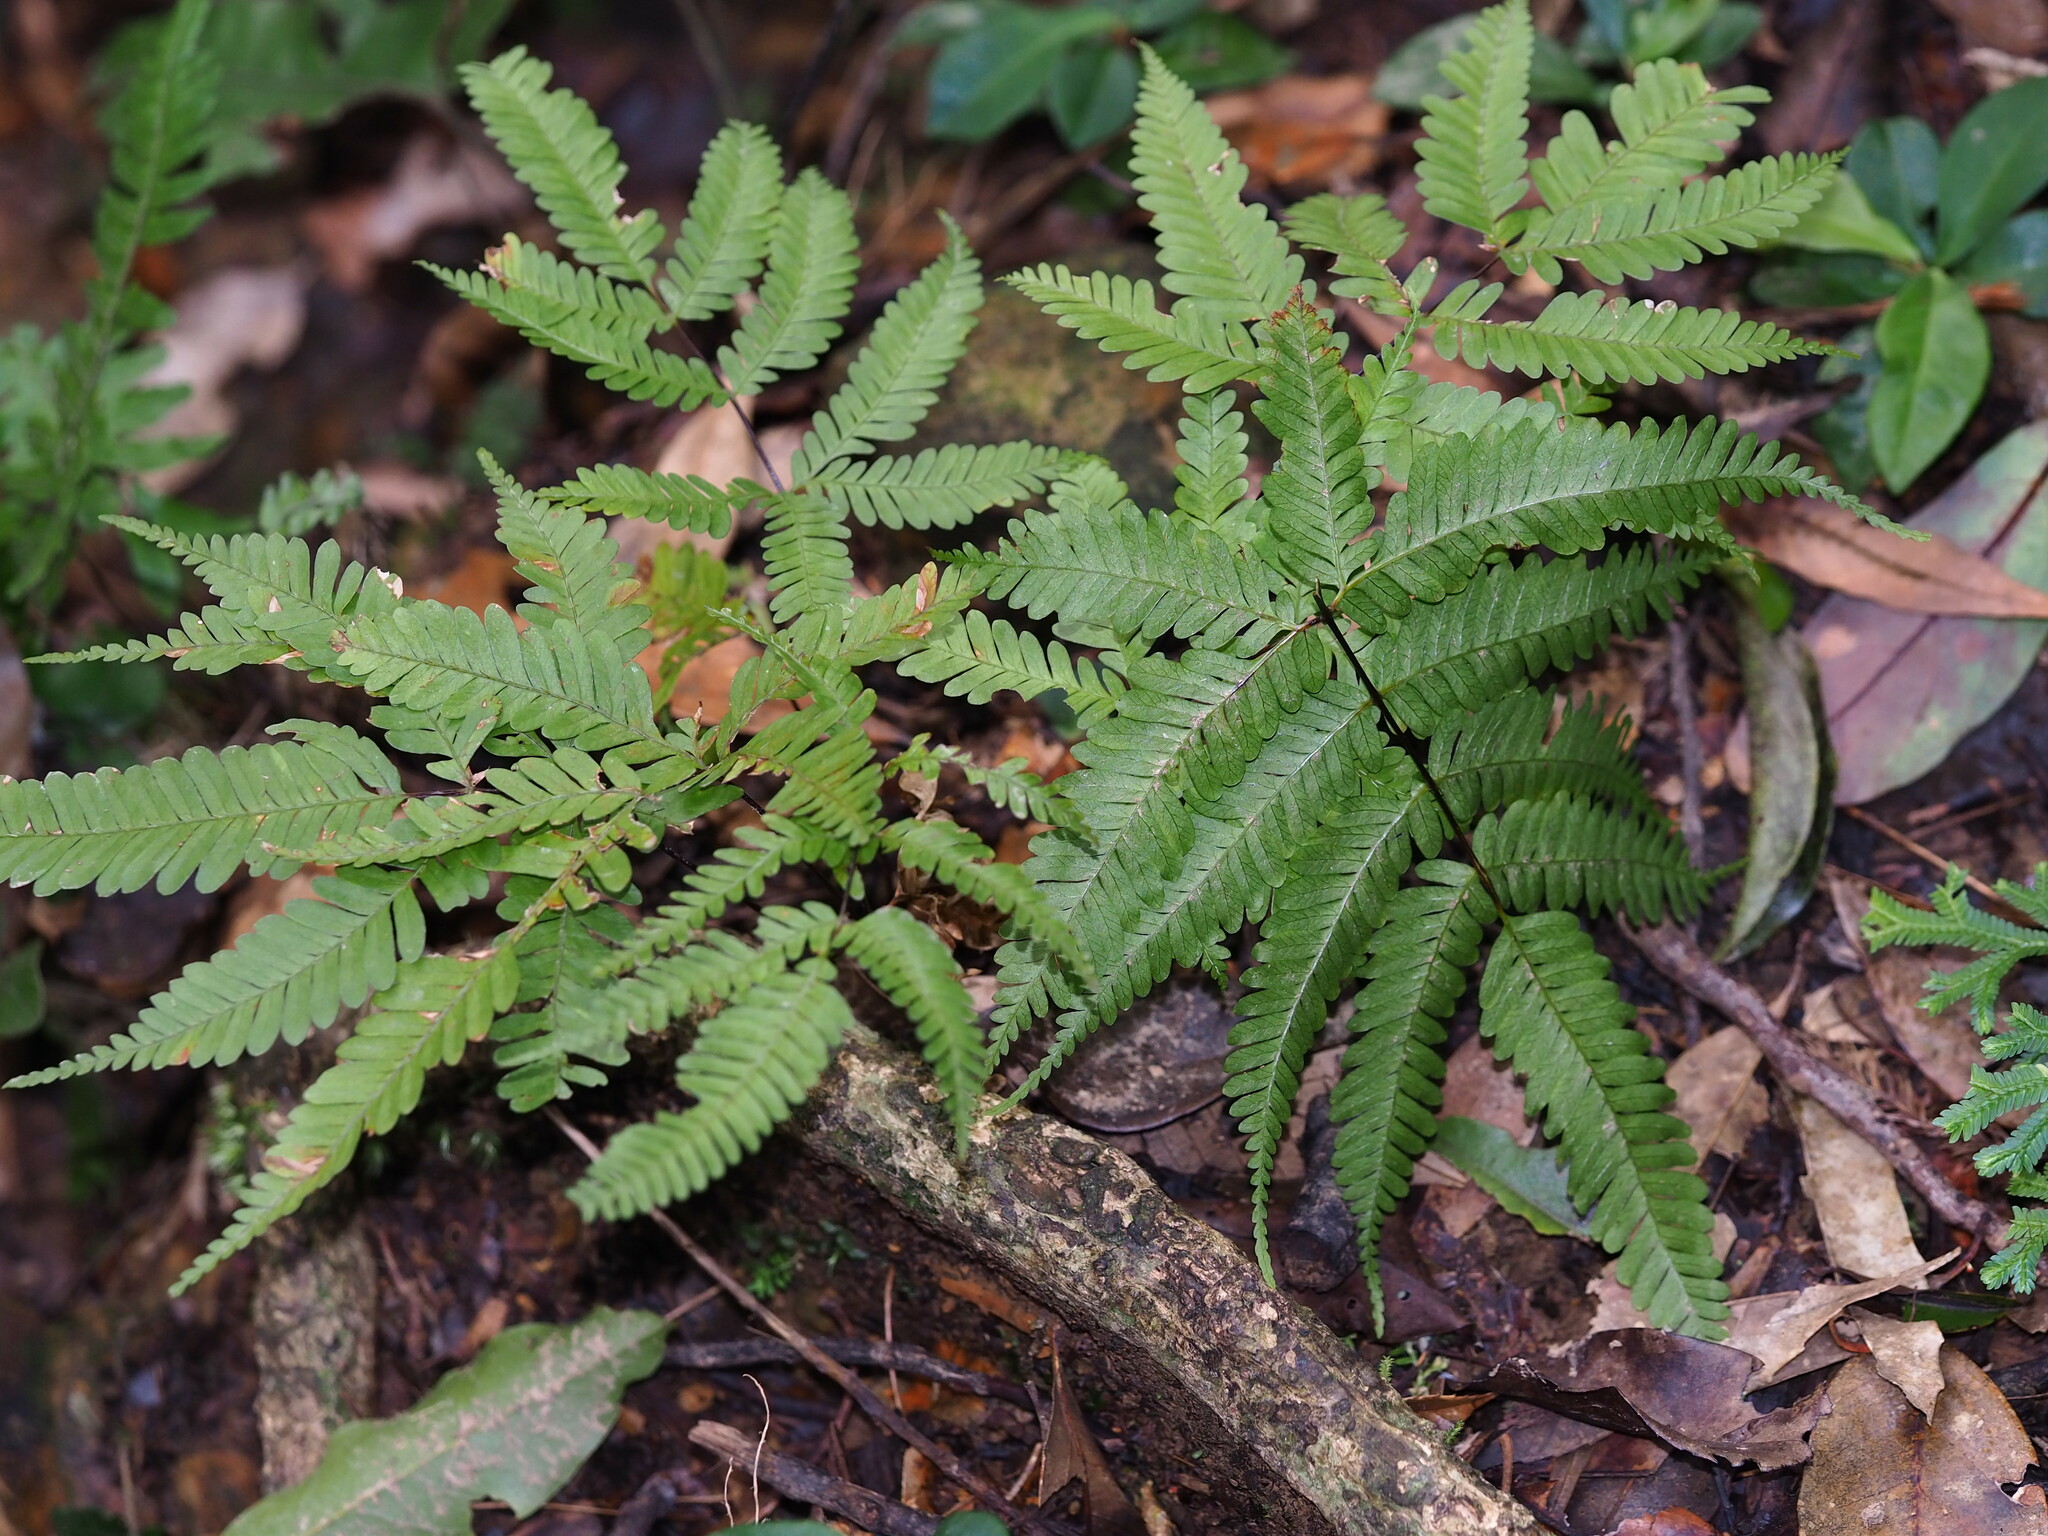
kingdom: Plantae
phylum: Tracheophyta
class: Polypodiopsida
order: Polypodiales
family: Pteridaceae
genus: Pteris
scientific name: Pteris bella
